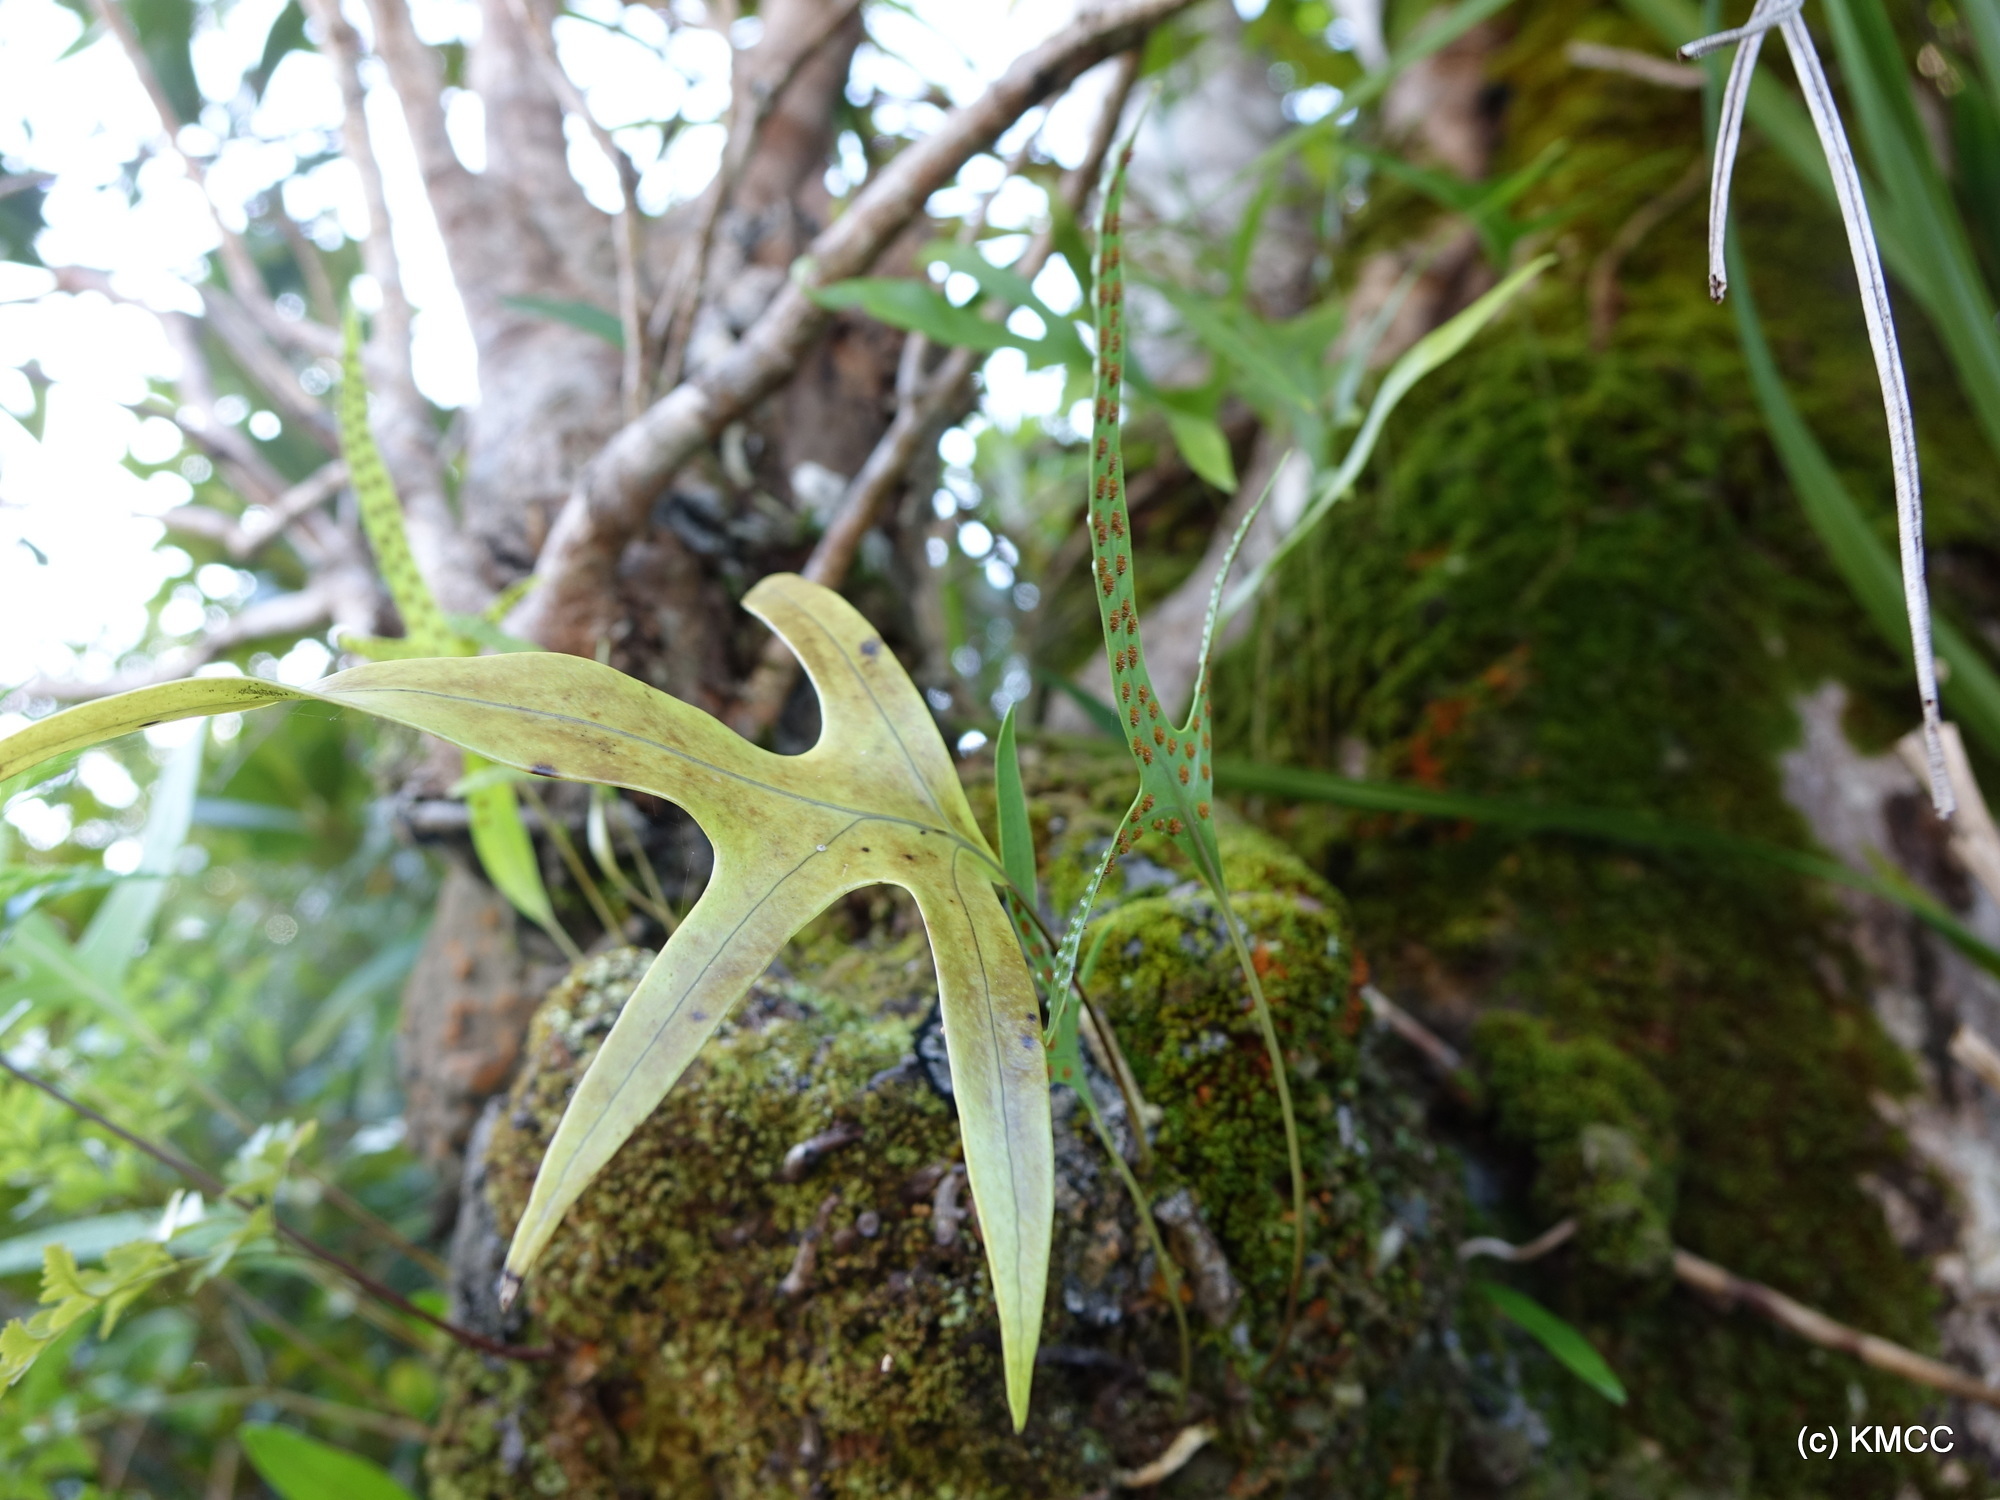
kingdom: Plantae
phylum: Tracheophyta
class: Polypodiopsida
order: Polypodiales
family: Polypodiaceae
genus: Microsorum
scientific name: Microsorum scolopendria
